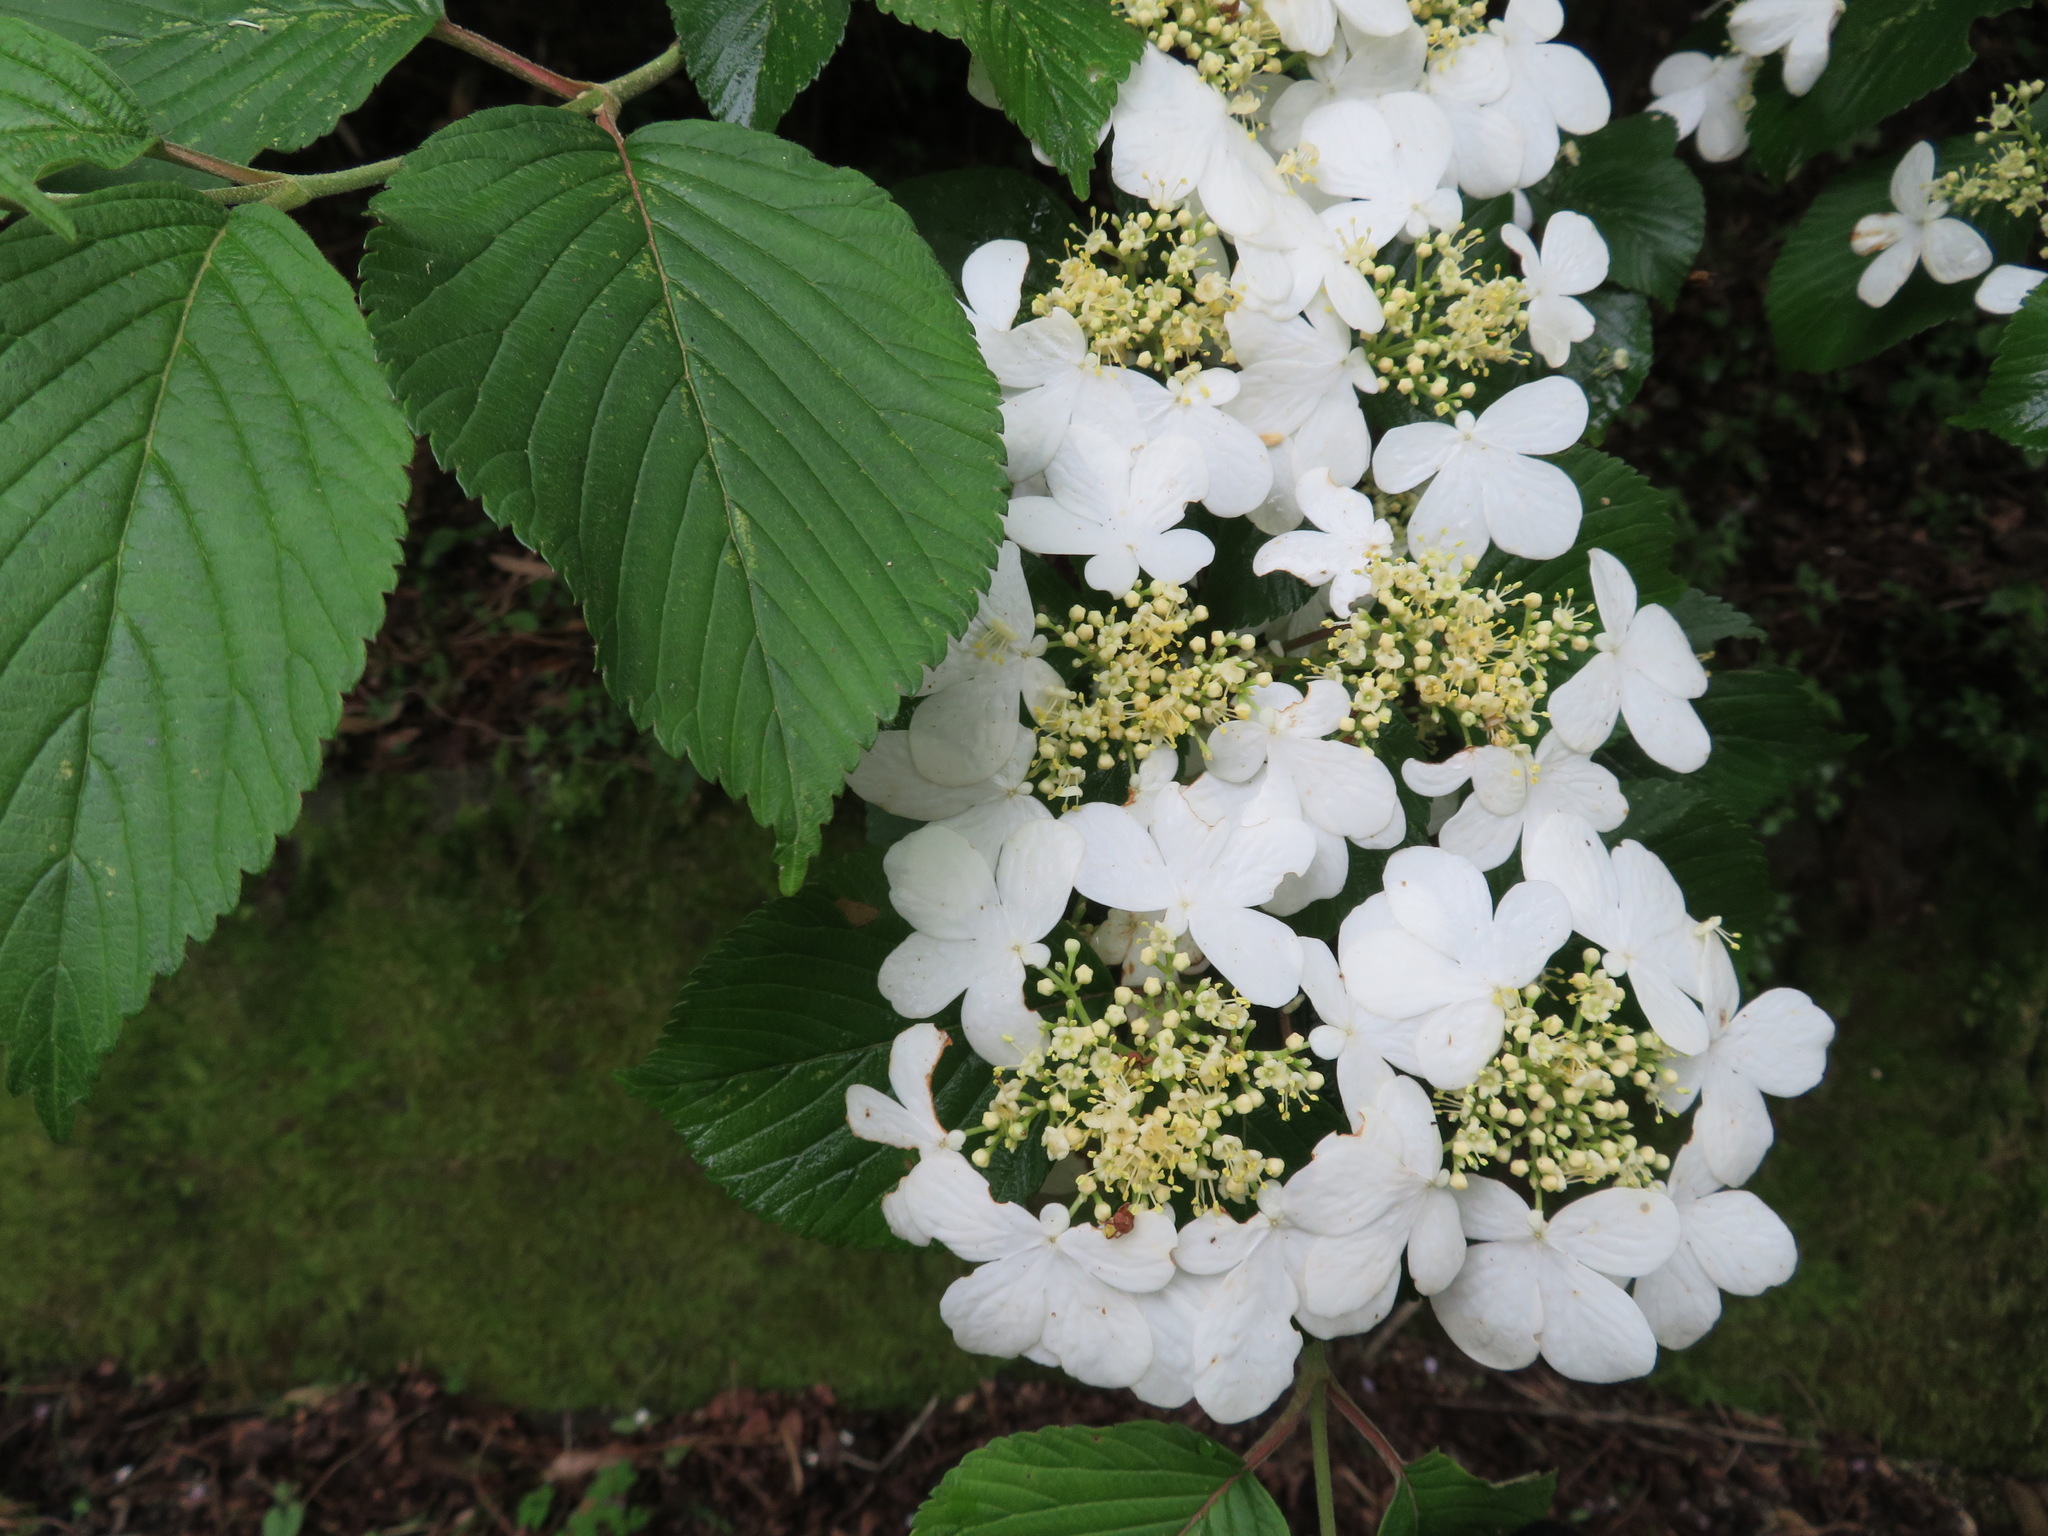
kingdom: Plantae
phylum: Tracheophyta
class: Magnoliopsida
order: Dipsacales
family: Viburnaceae
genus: Viburnum
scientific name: Viburnum plicatum
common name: Japanese snowball
